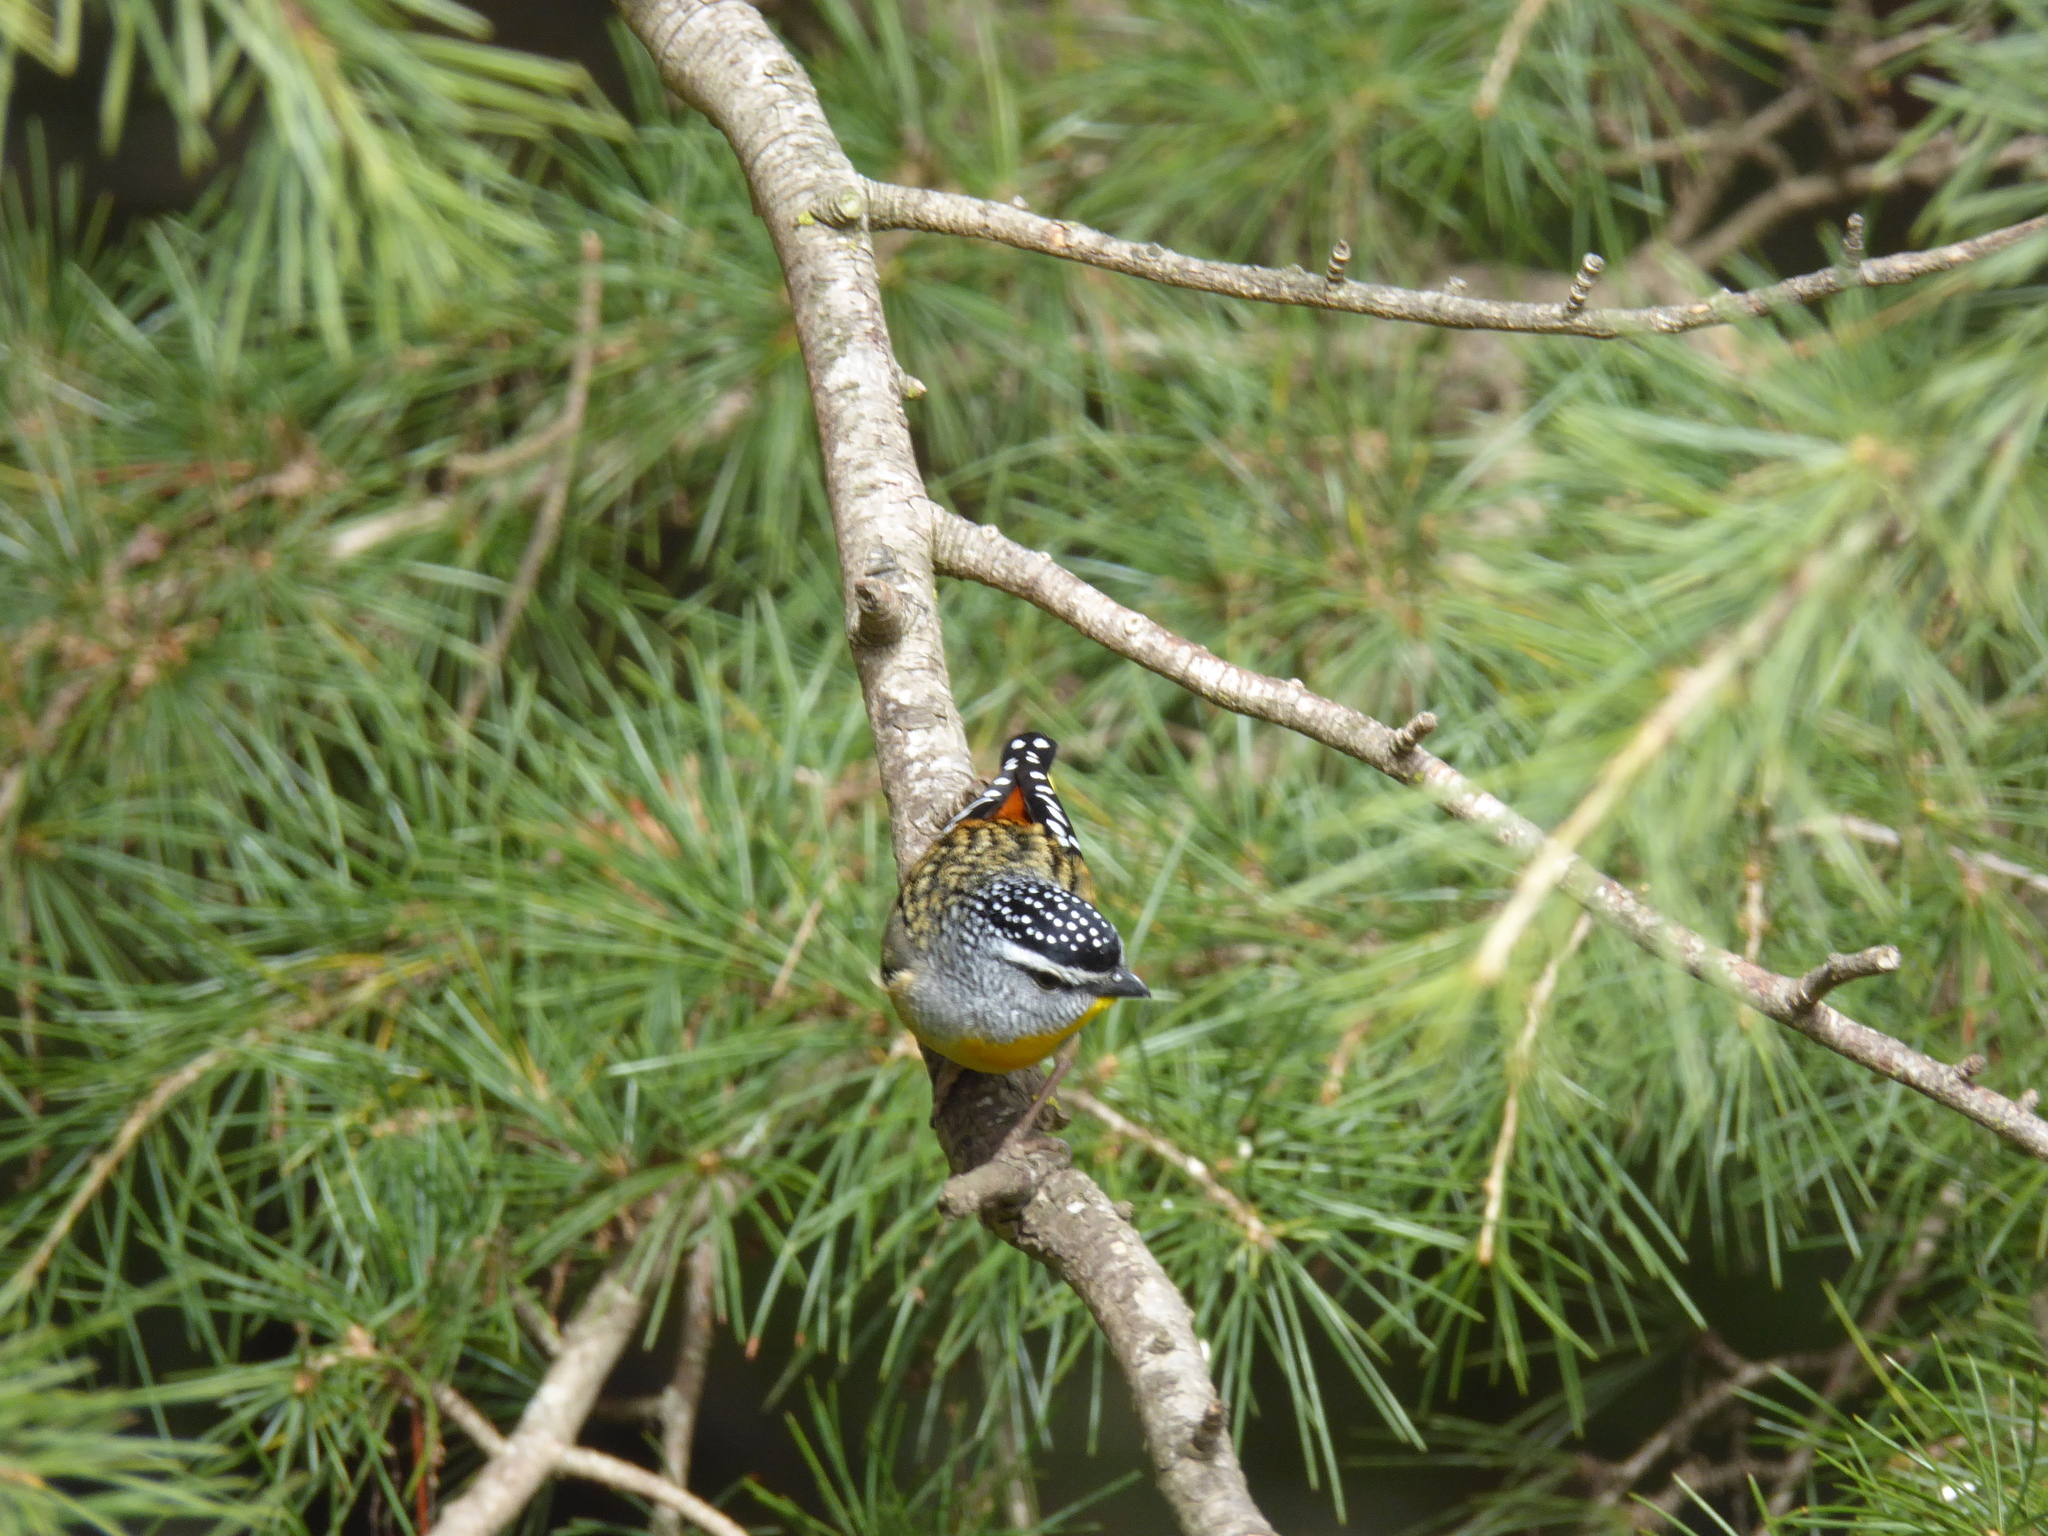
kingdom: Animalia
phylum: Chordata
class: Aves
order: Passeriformes
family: Pardalotidae
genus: Pardalotus
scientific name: Pardalotus punctatus
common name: Spotted pardalote
